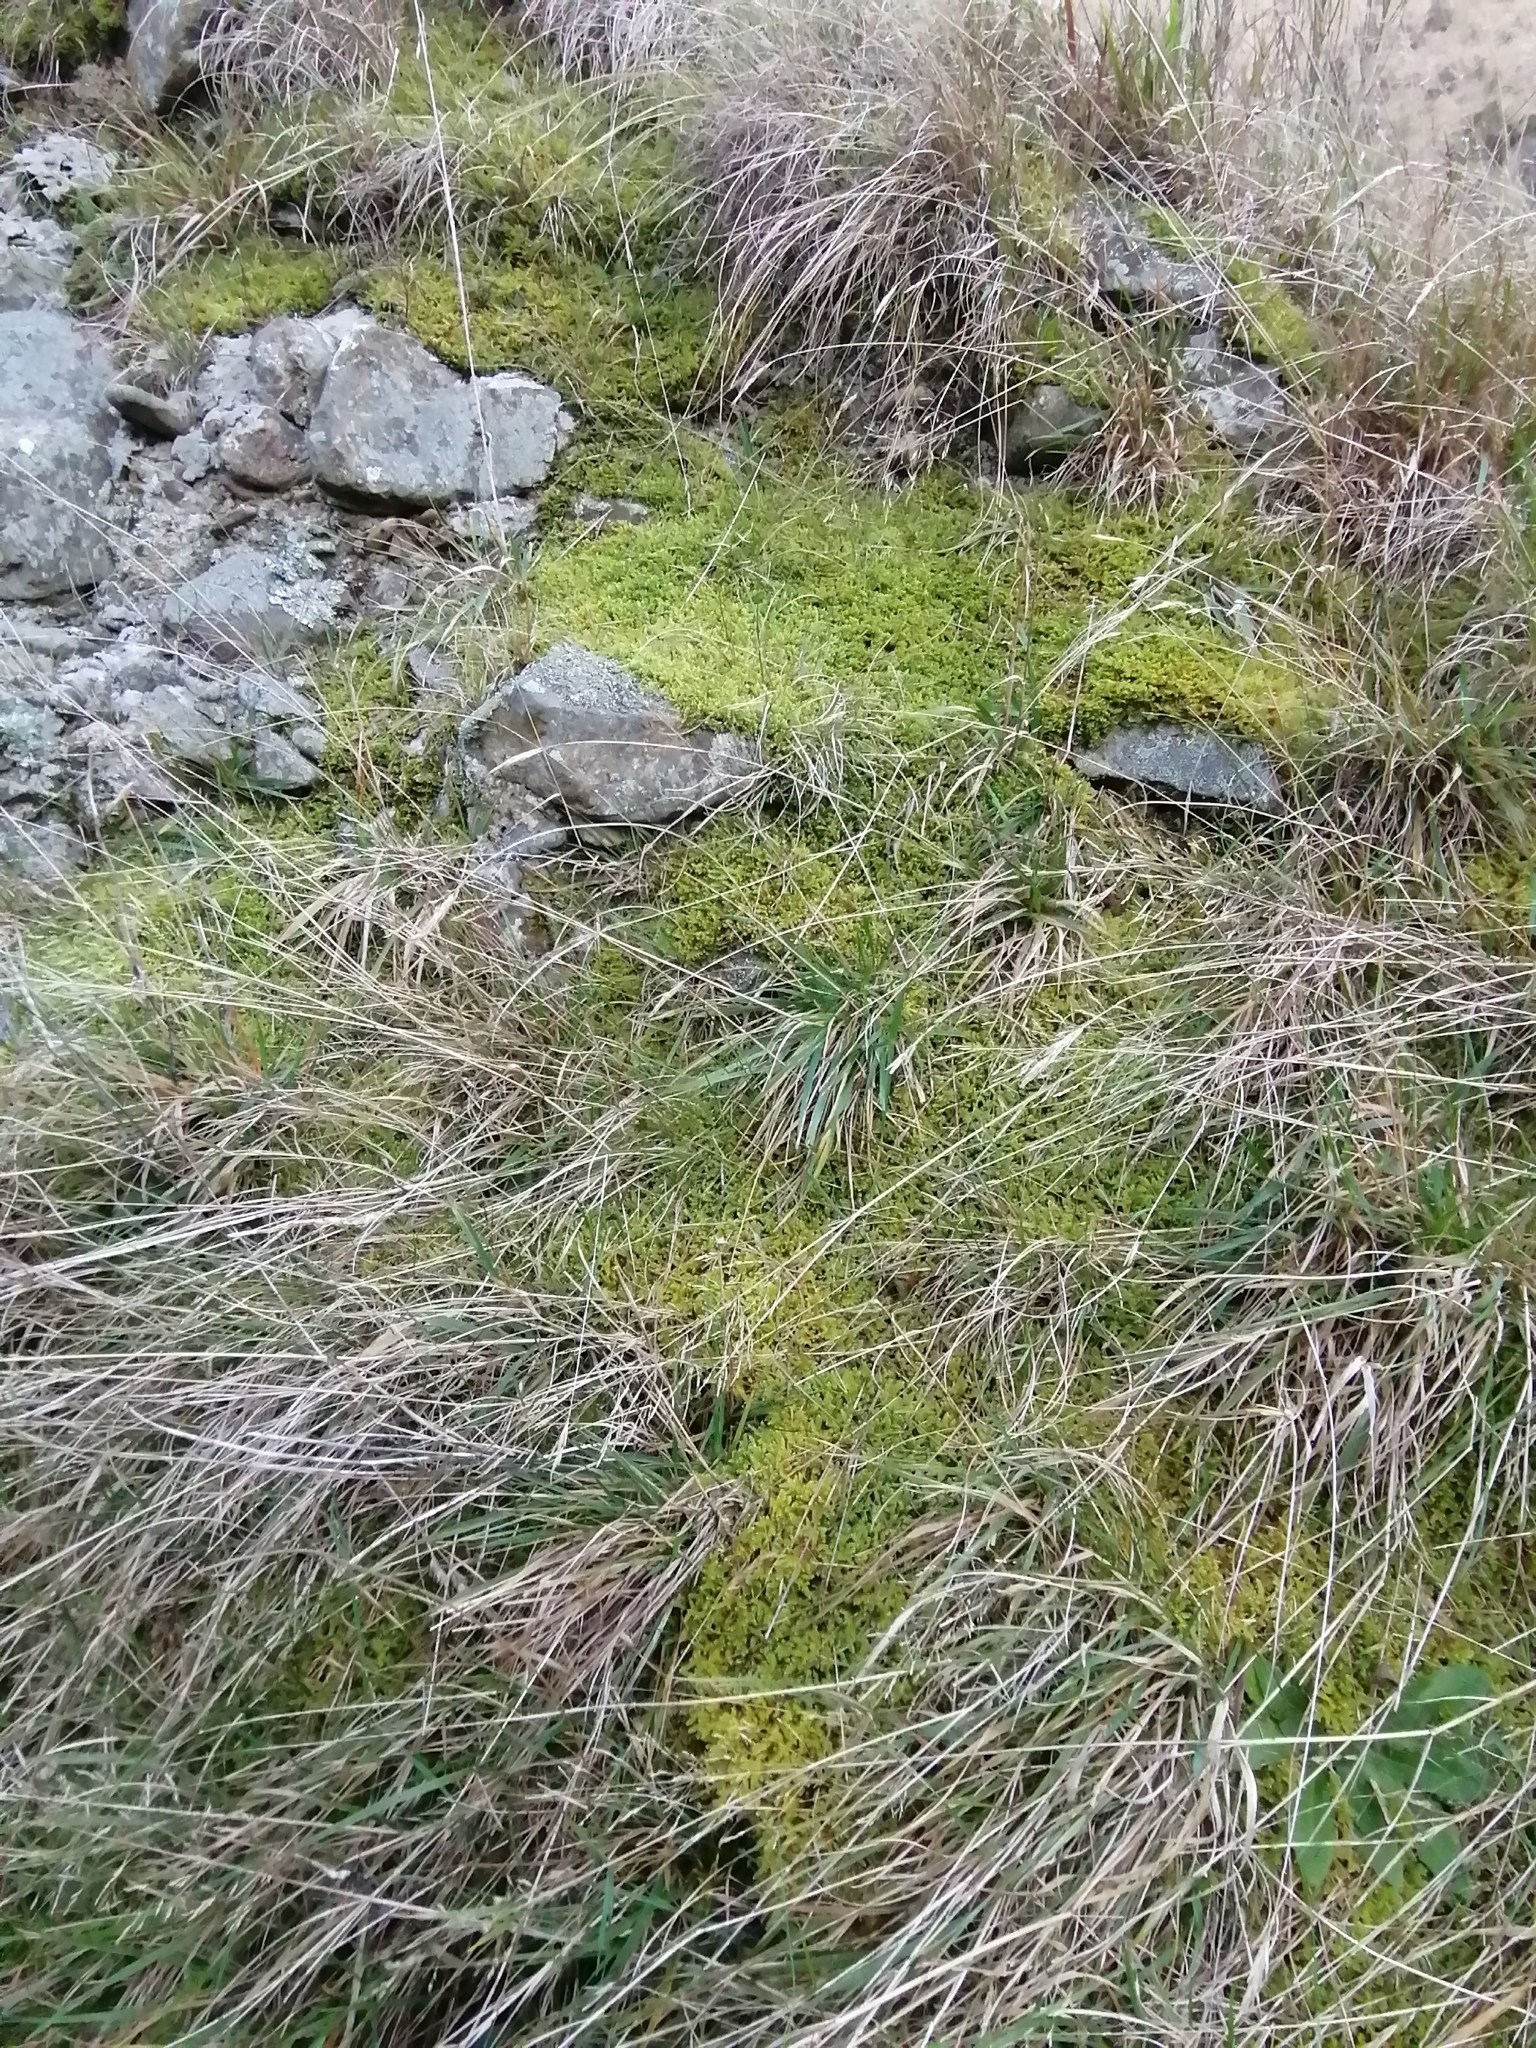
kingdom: Plantae
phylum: Bryophyta
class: Bryopsida
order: Hypnales
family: Hypnaceae
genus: Hypnum
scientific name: Hypnum cupressiforme
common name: Cypress-leaved plait-moss
